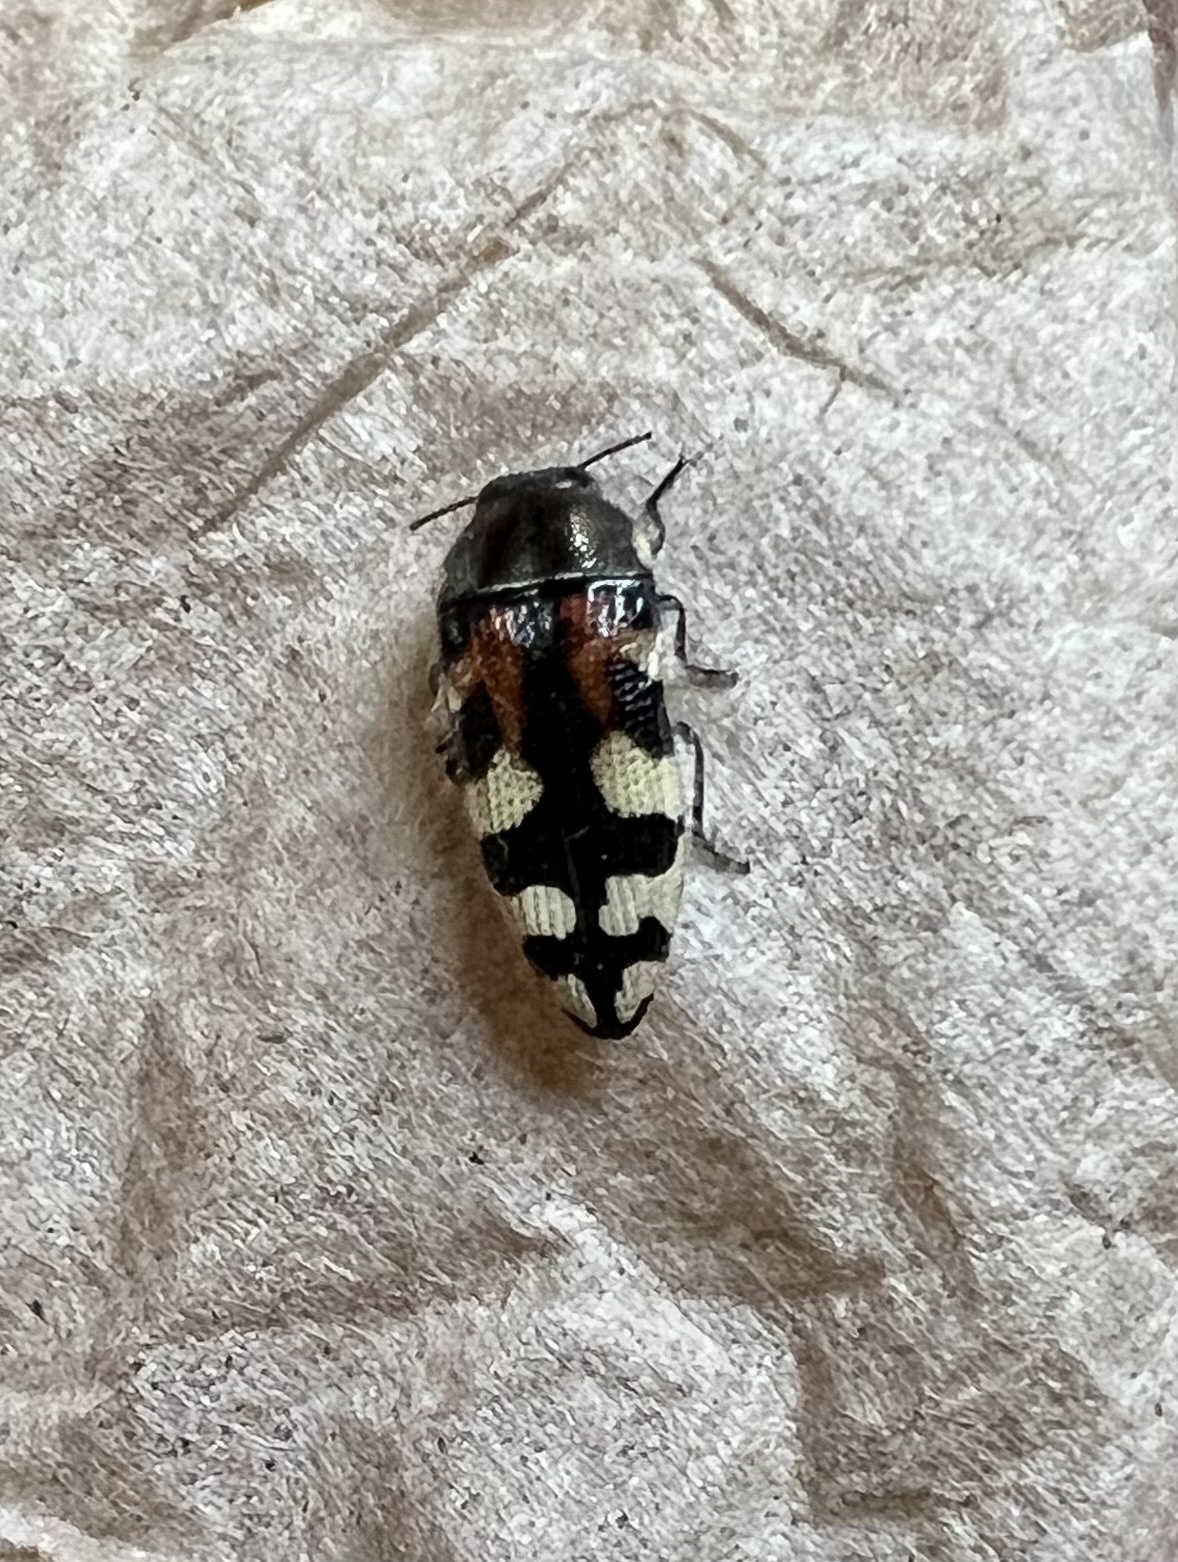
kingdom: Animalia
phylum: Arthropoda
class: Insecta
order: Coleoptera
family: Buprestidae
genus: Acmaeodera
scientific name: Acmaeodera tuta
